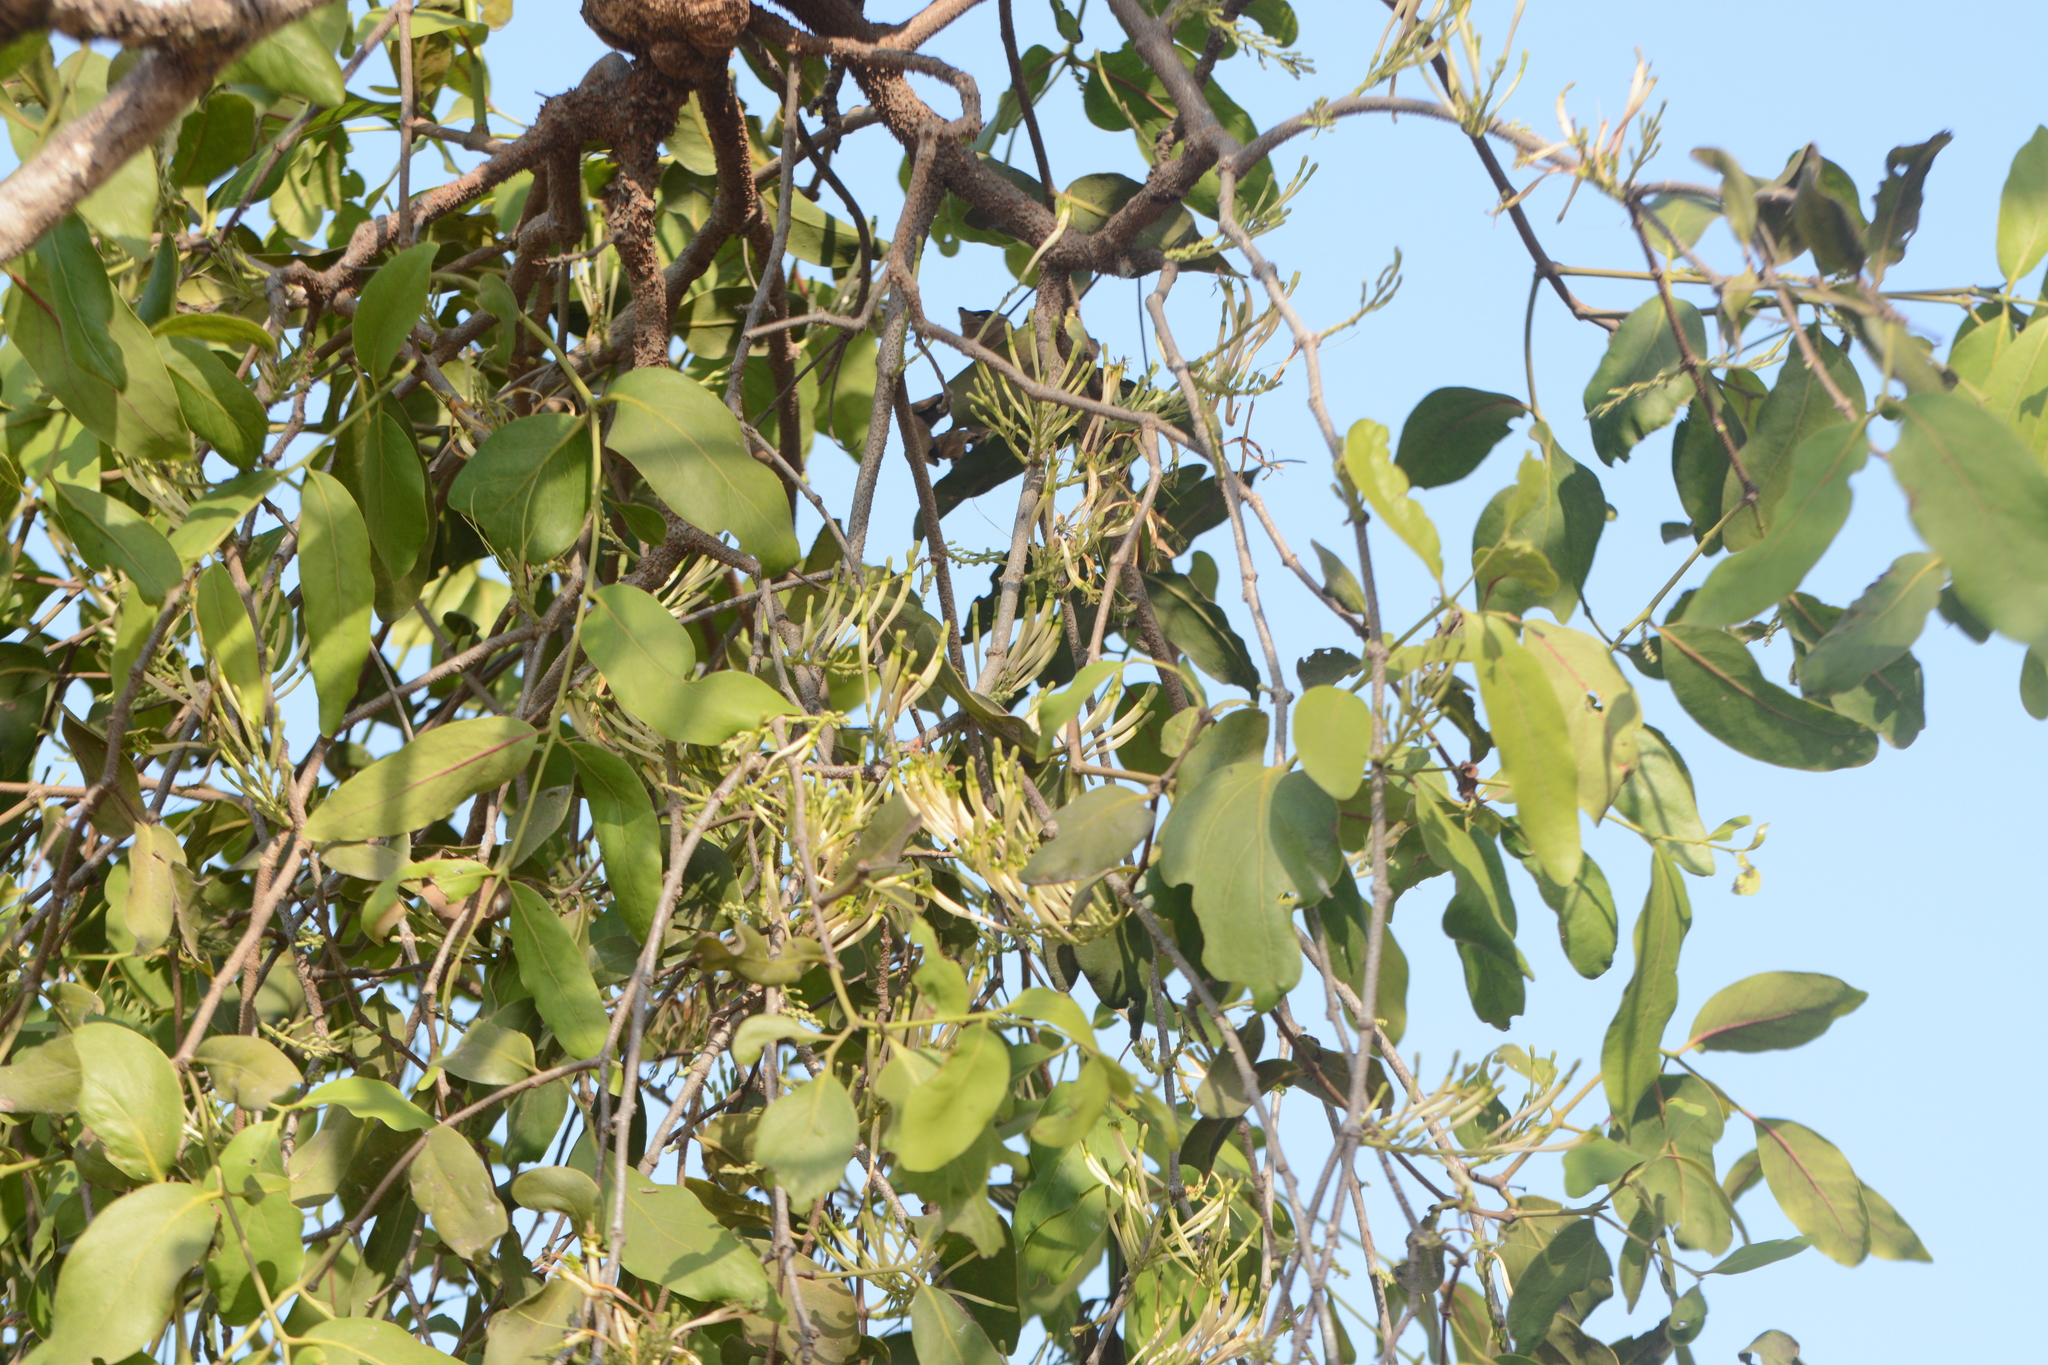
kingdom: Plantae
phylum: Tracheophyta
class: Magnoliopsida
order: Santalales
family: Loranthaceae
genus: Dendrophthoe
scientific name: Dendrophthoe falcata
